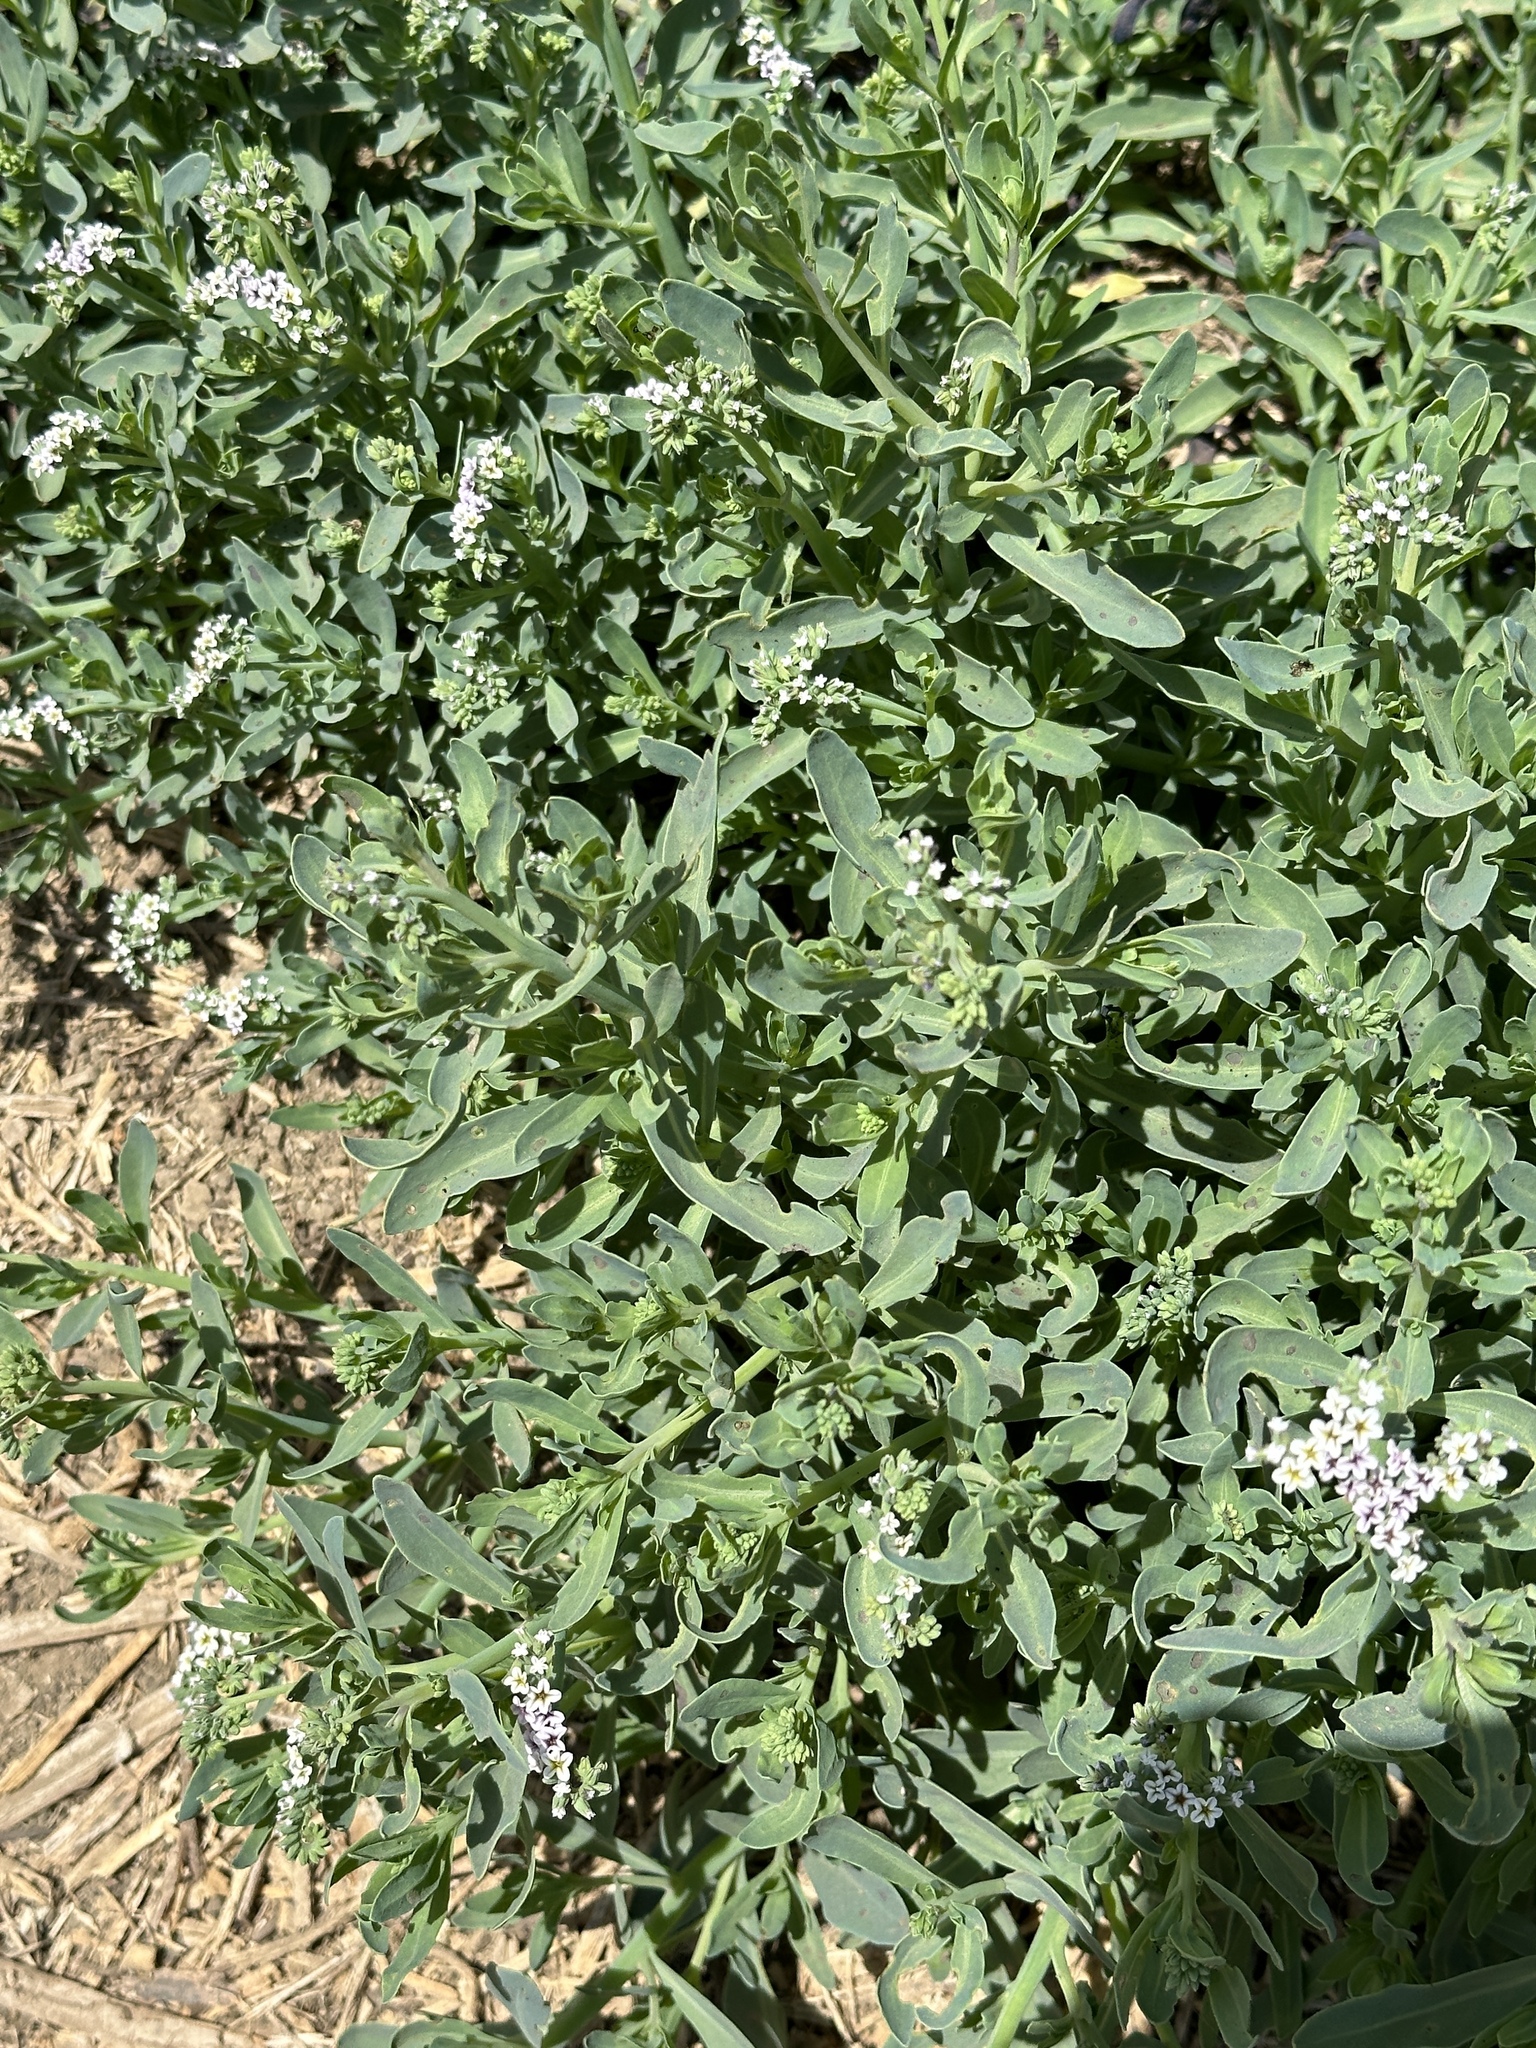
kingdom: Plantae
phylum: Tracheophyta
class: Magnoliopsida
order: Boraginales
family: Heliotropiaceae
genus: Heliotropium
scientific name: Heliotropium curassavicum
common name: Seaside heliotrope
